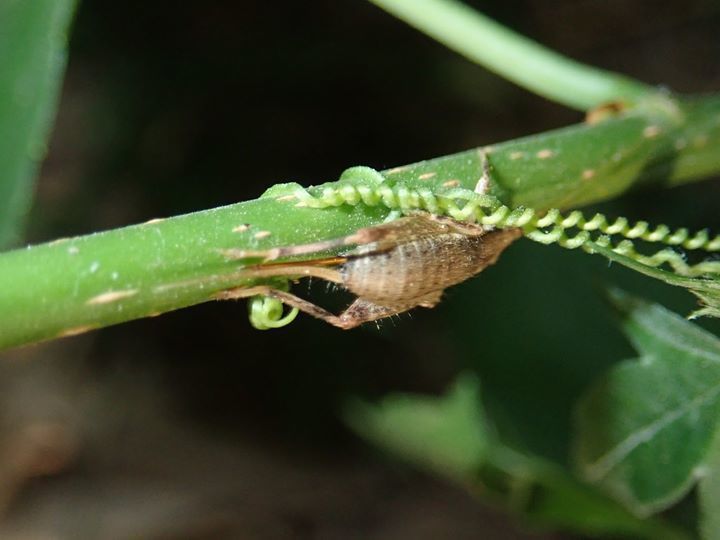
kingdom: Animalia
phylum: Arthropoda
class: Insecta
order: Orthoptera
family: Mogoplistidae
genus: Ornebius
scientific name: Ornebius infuscatus
